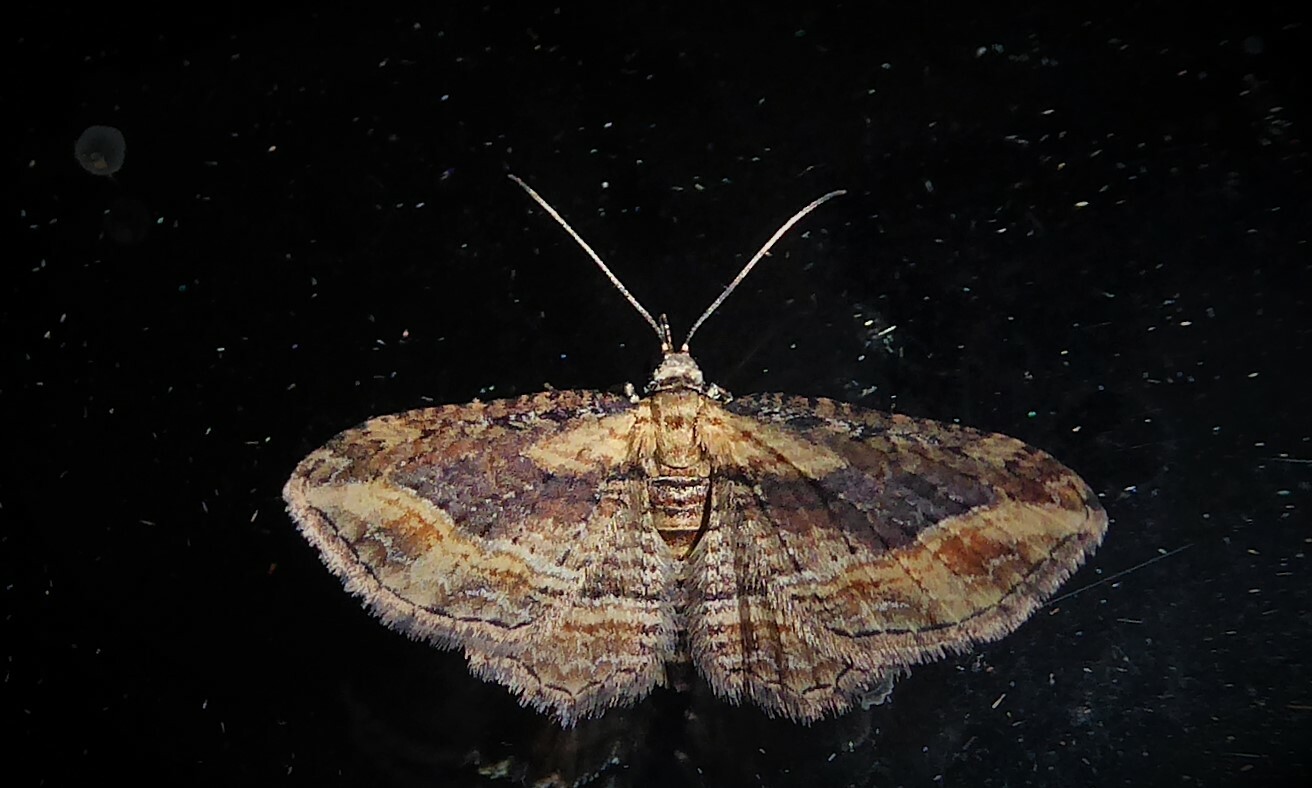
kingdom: Animalia
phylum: Arthropoda
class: Insecta
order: Lepidoptera
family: Geometridae
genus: Chloroclystis
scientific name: Chloroclystis filata
